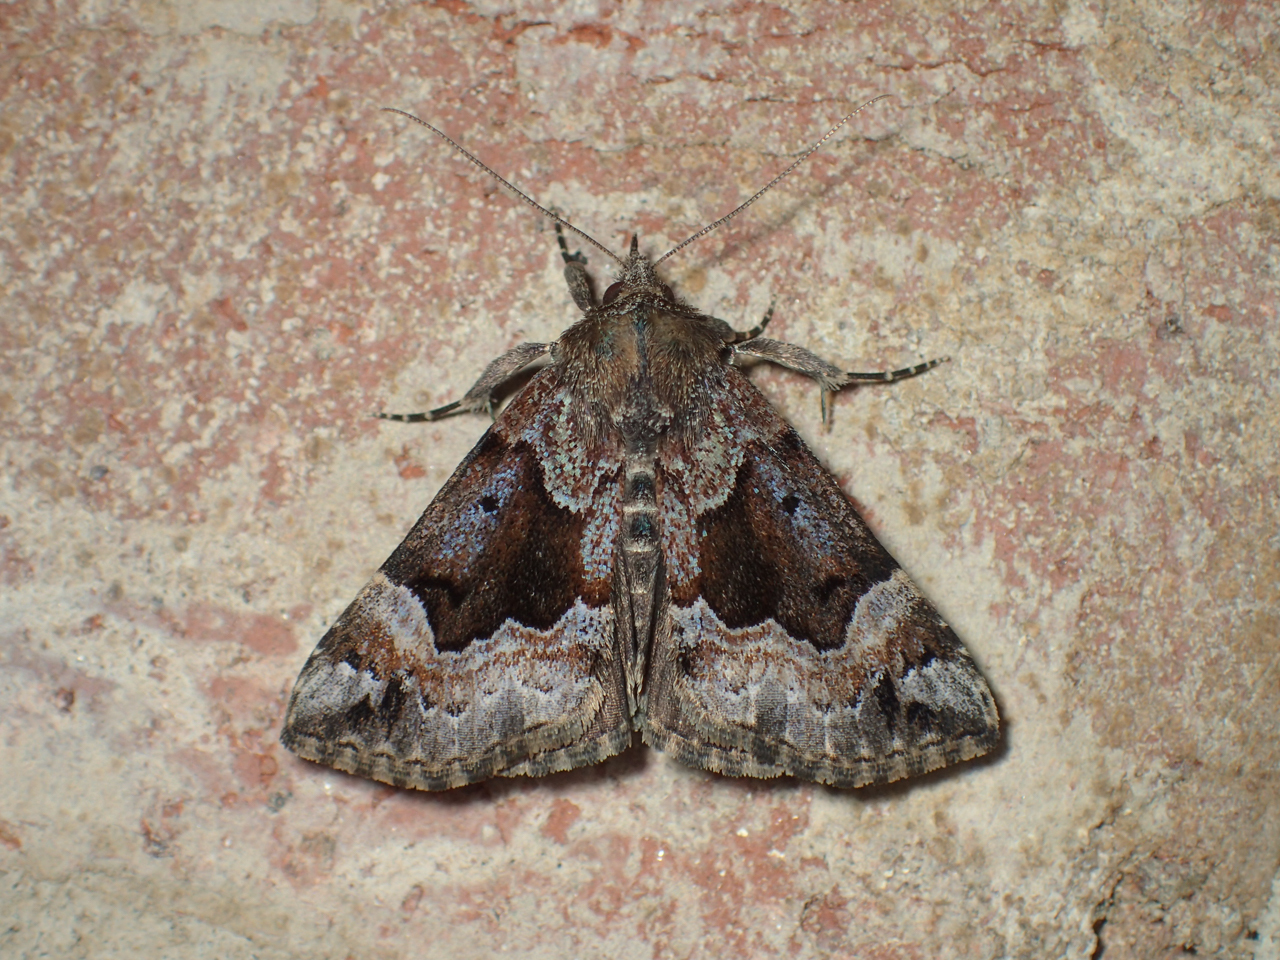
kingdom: Animalia
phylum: Arthropoda
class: Insecta
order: Lepidoptera
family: Erebidae
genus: Hypena
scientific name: Hypena palparia
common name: Mottled bomolocha moth
